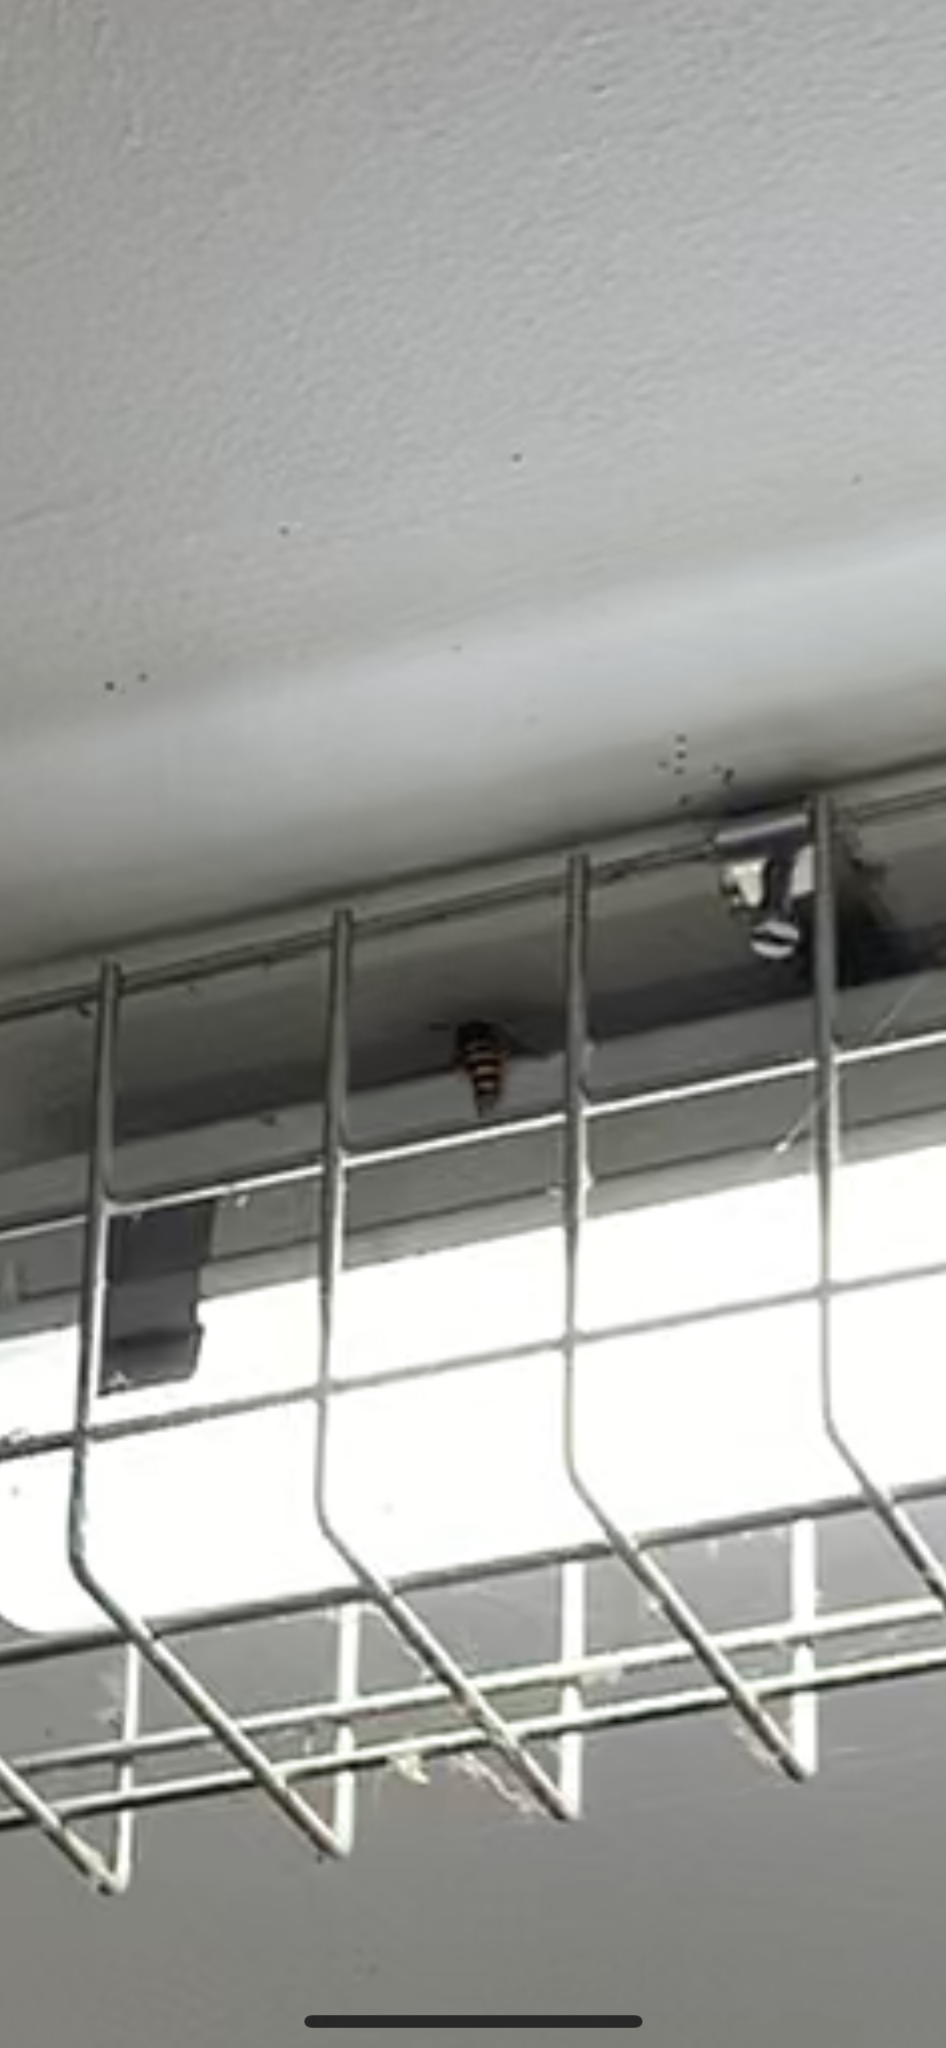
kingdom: Animalia
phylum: Arthropoda
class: Insecta
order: Hymenoptera
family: Vespidae
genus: Vespa
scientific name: Vespa crabro
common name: Hornet
